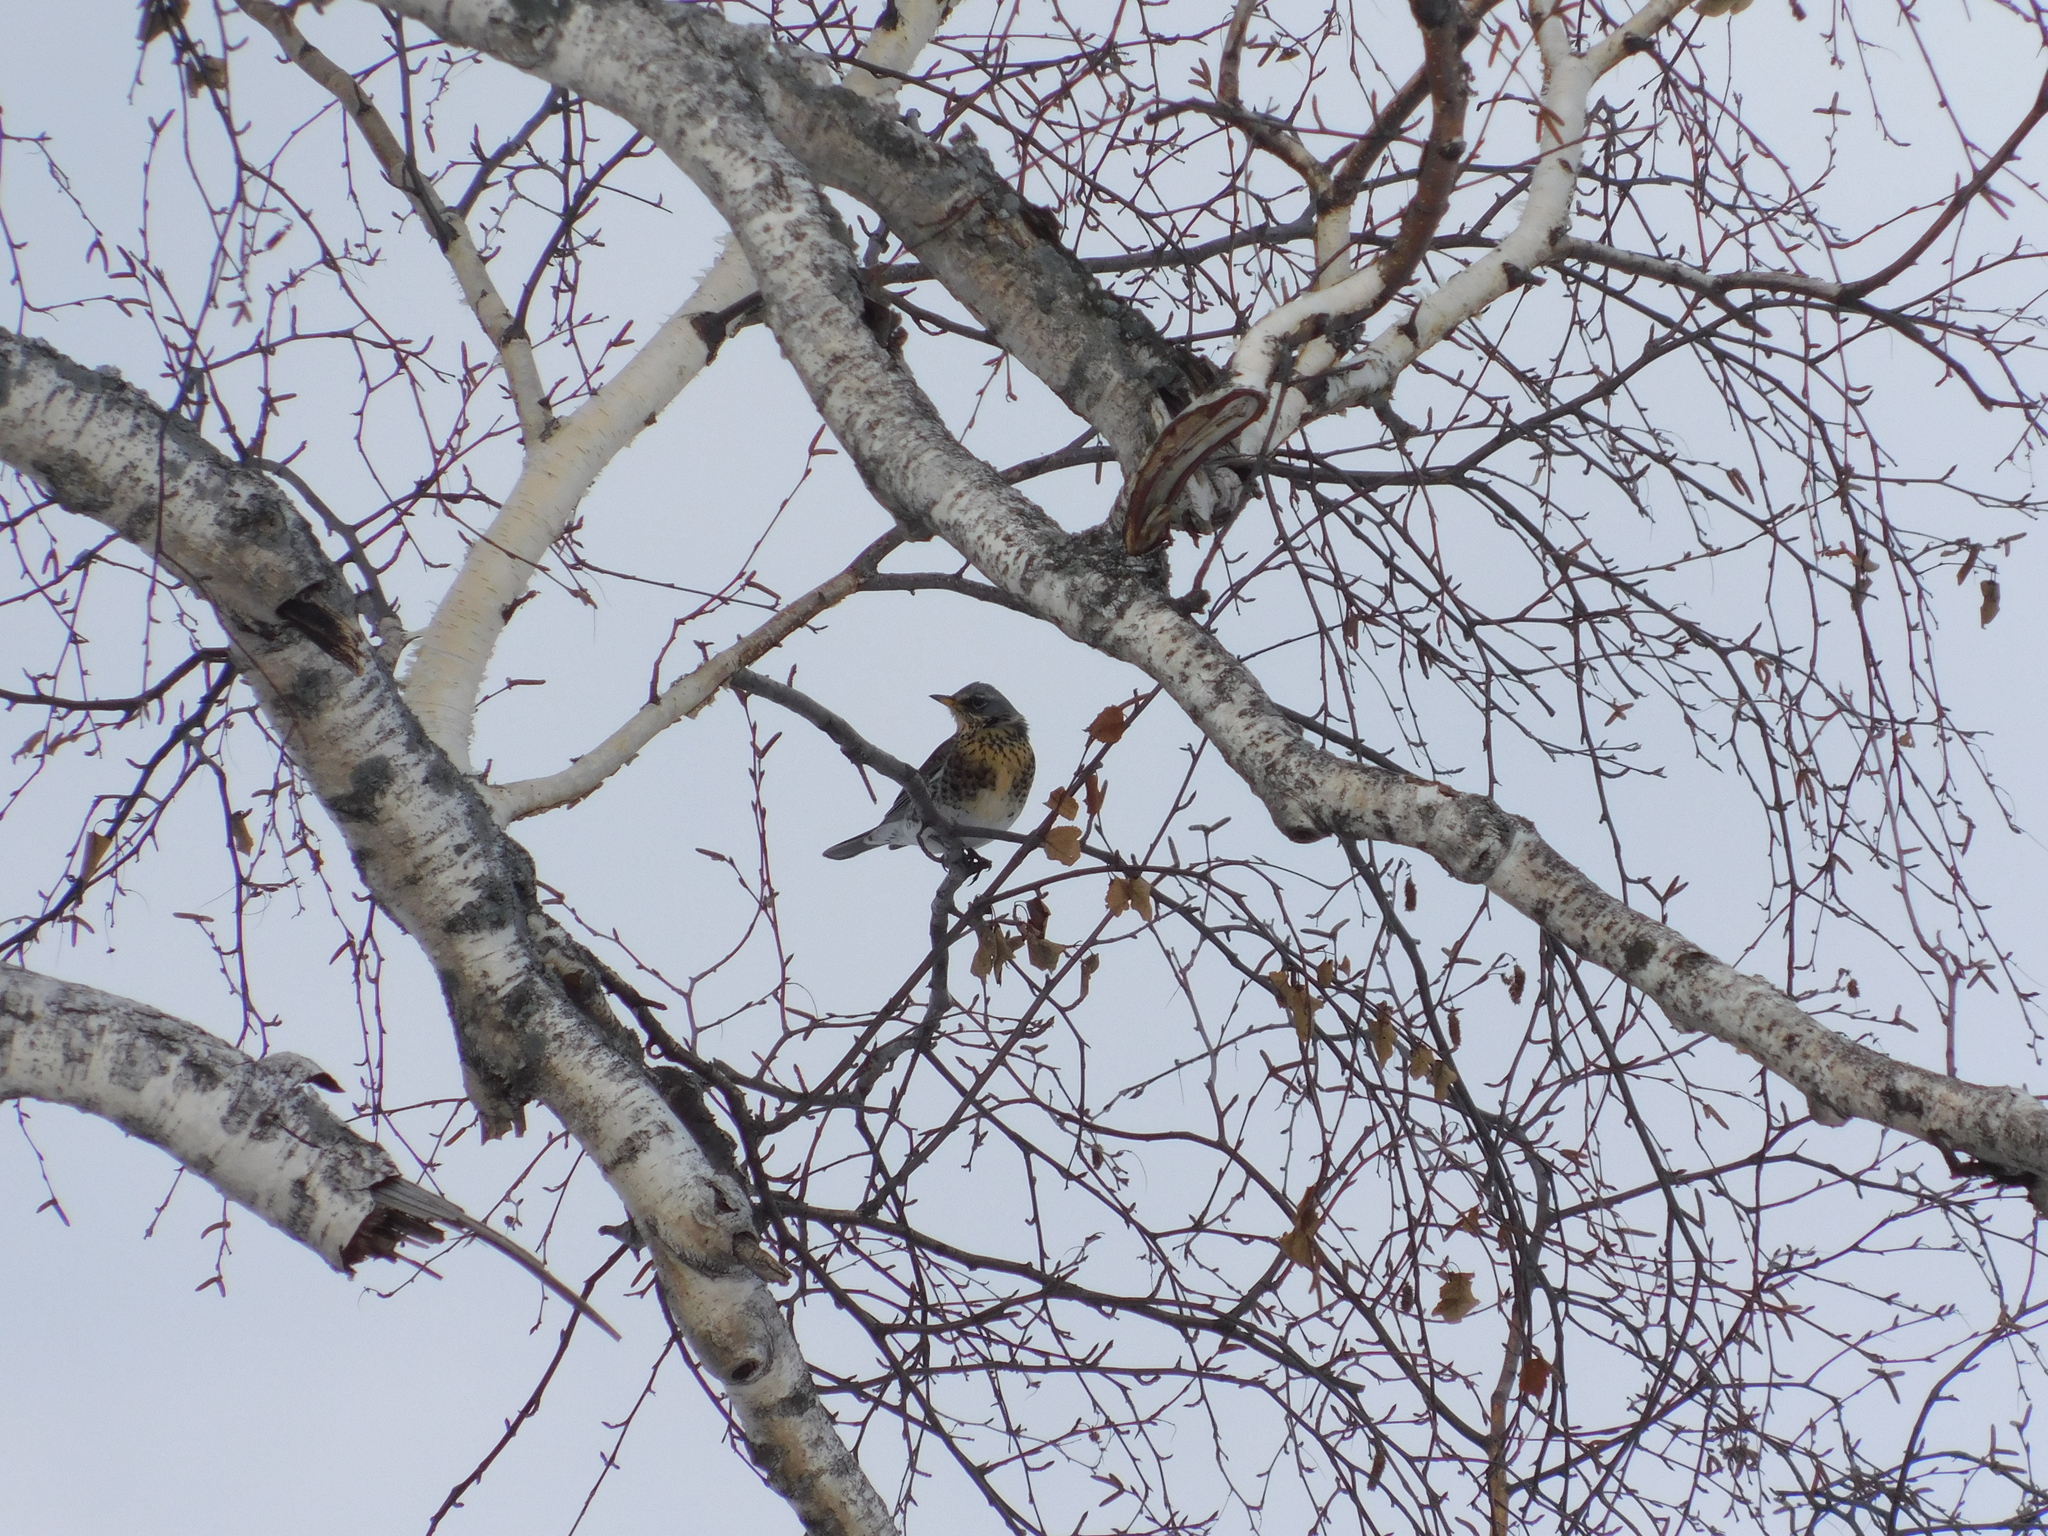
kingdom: Animalia
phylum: Chordata
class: Aves
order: Passeriformes
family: Turdidae
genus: Turdus
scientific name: Turdus pilaris
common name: Fieldfare
